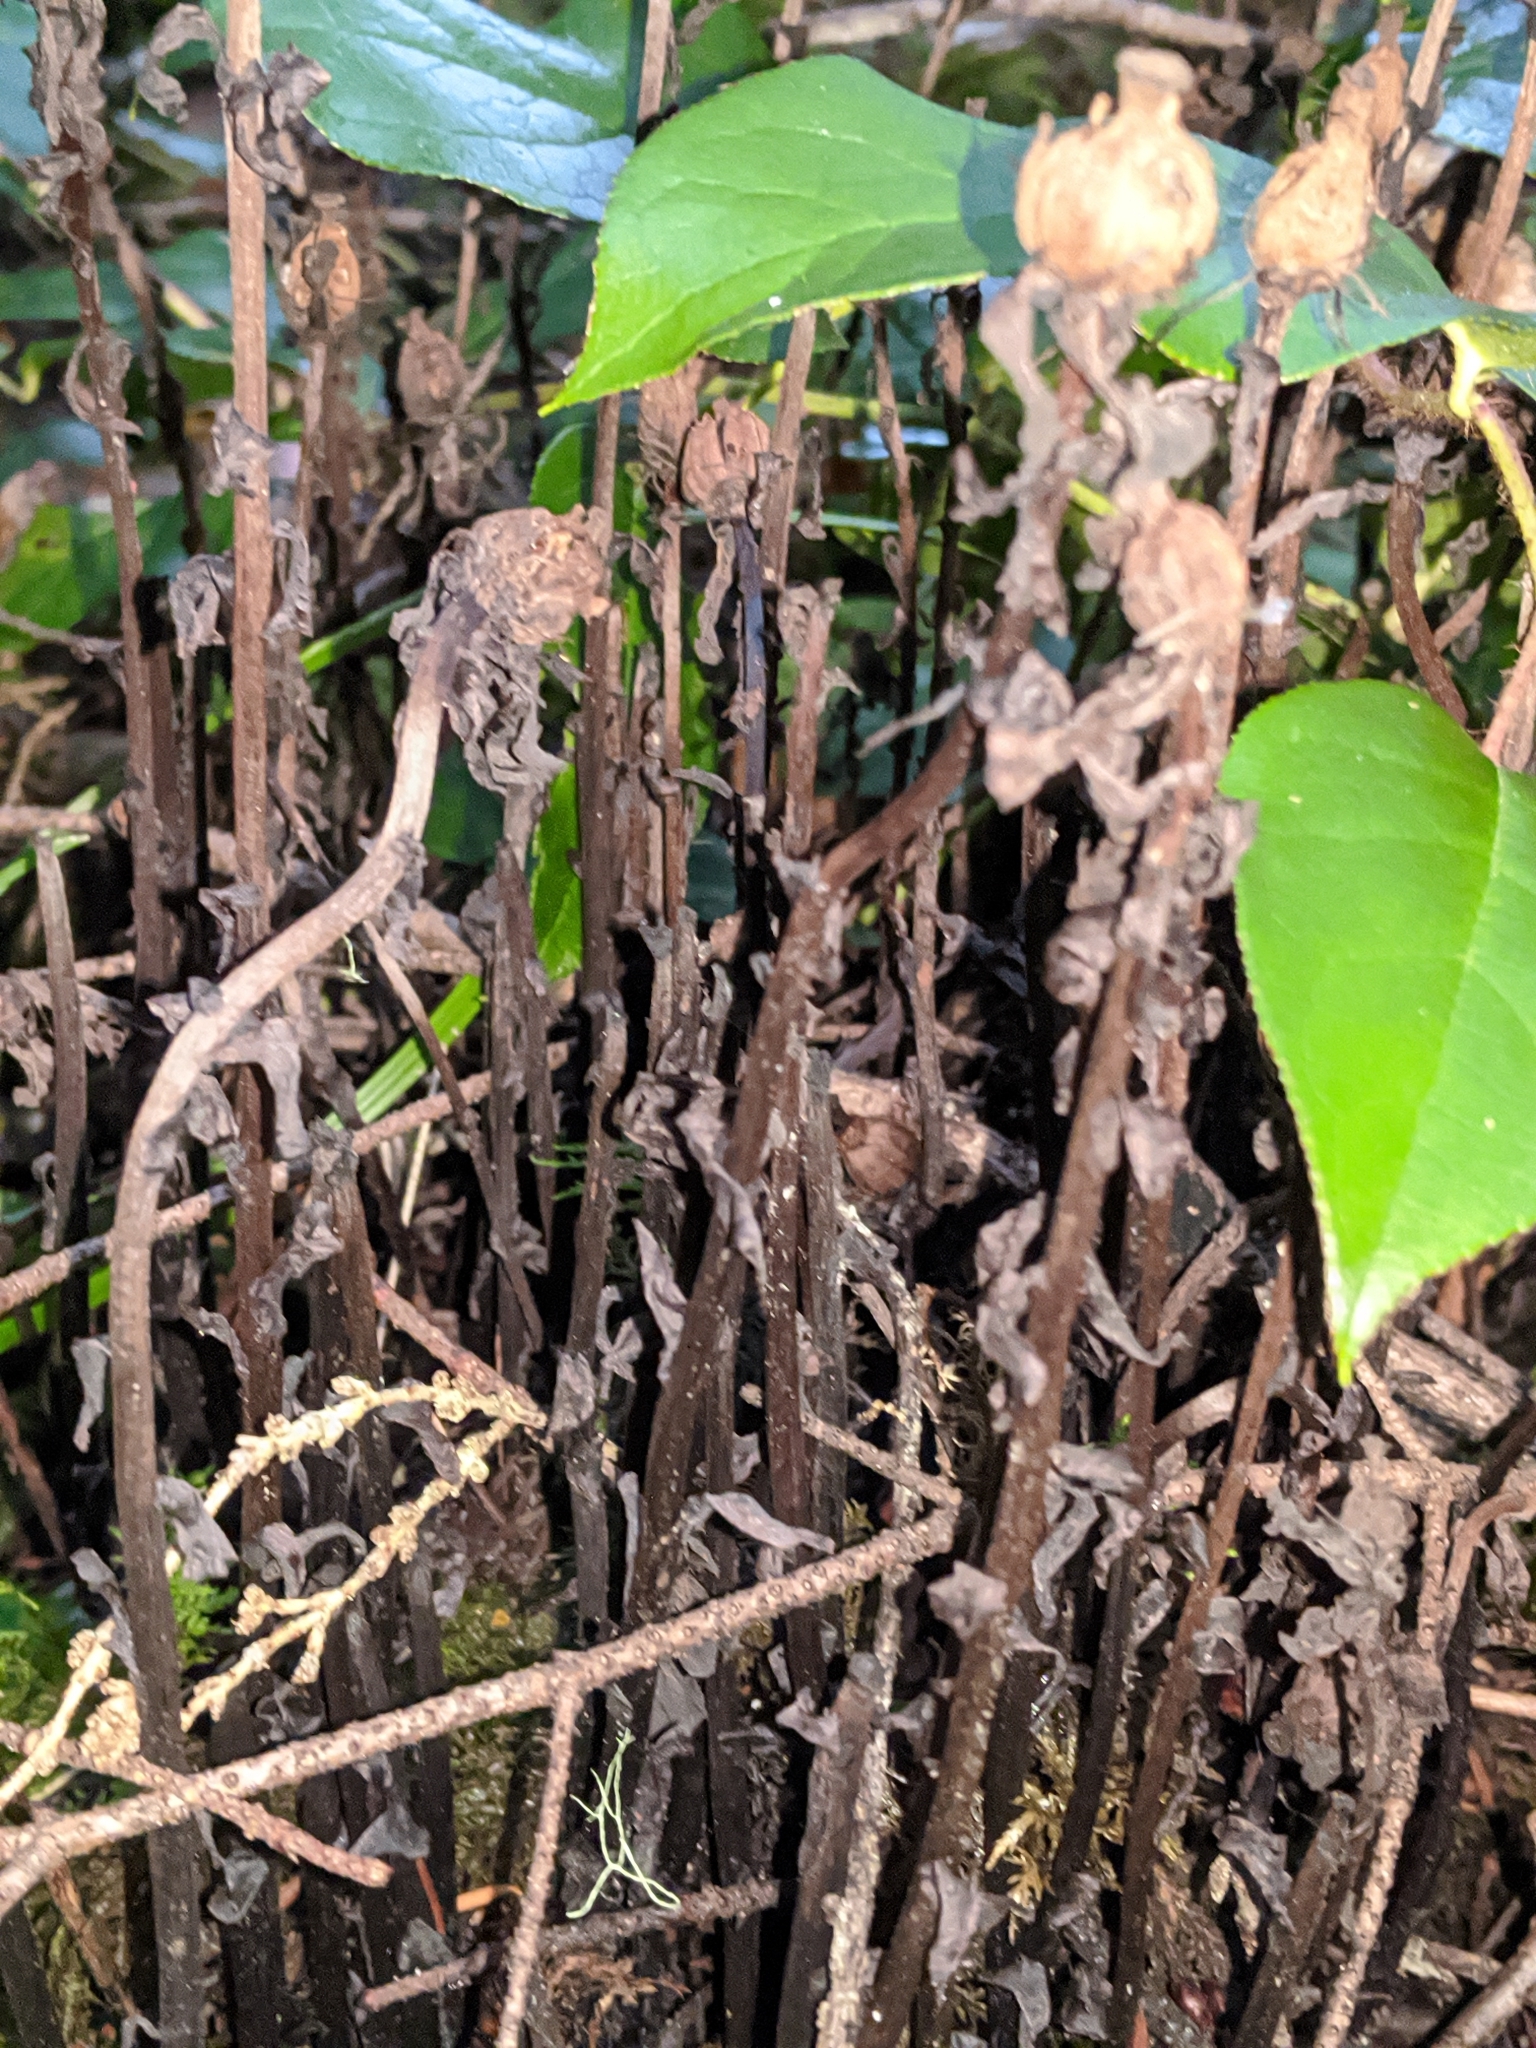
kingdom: Plantae
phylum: Tracheophyta
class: Magnoliopsida
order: Ericales
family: Ericaceae
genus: Monotropa
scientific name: Monotropa uniflora
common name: Convulsion root
